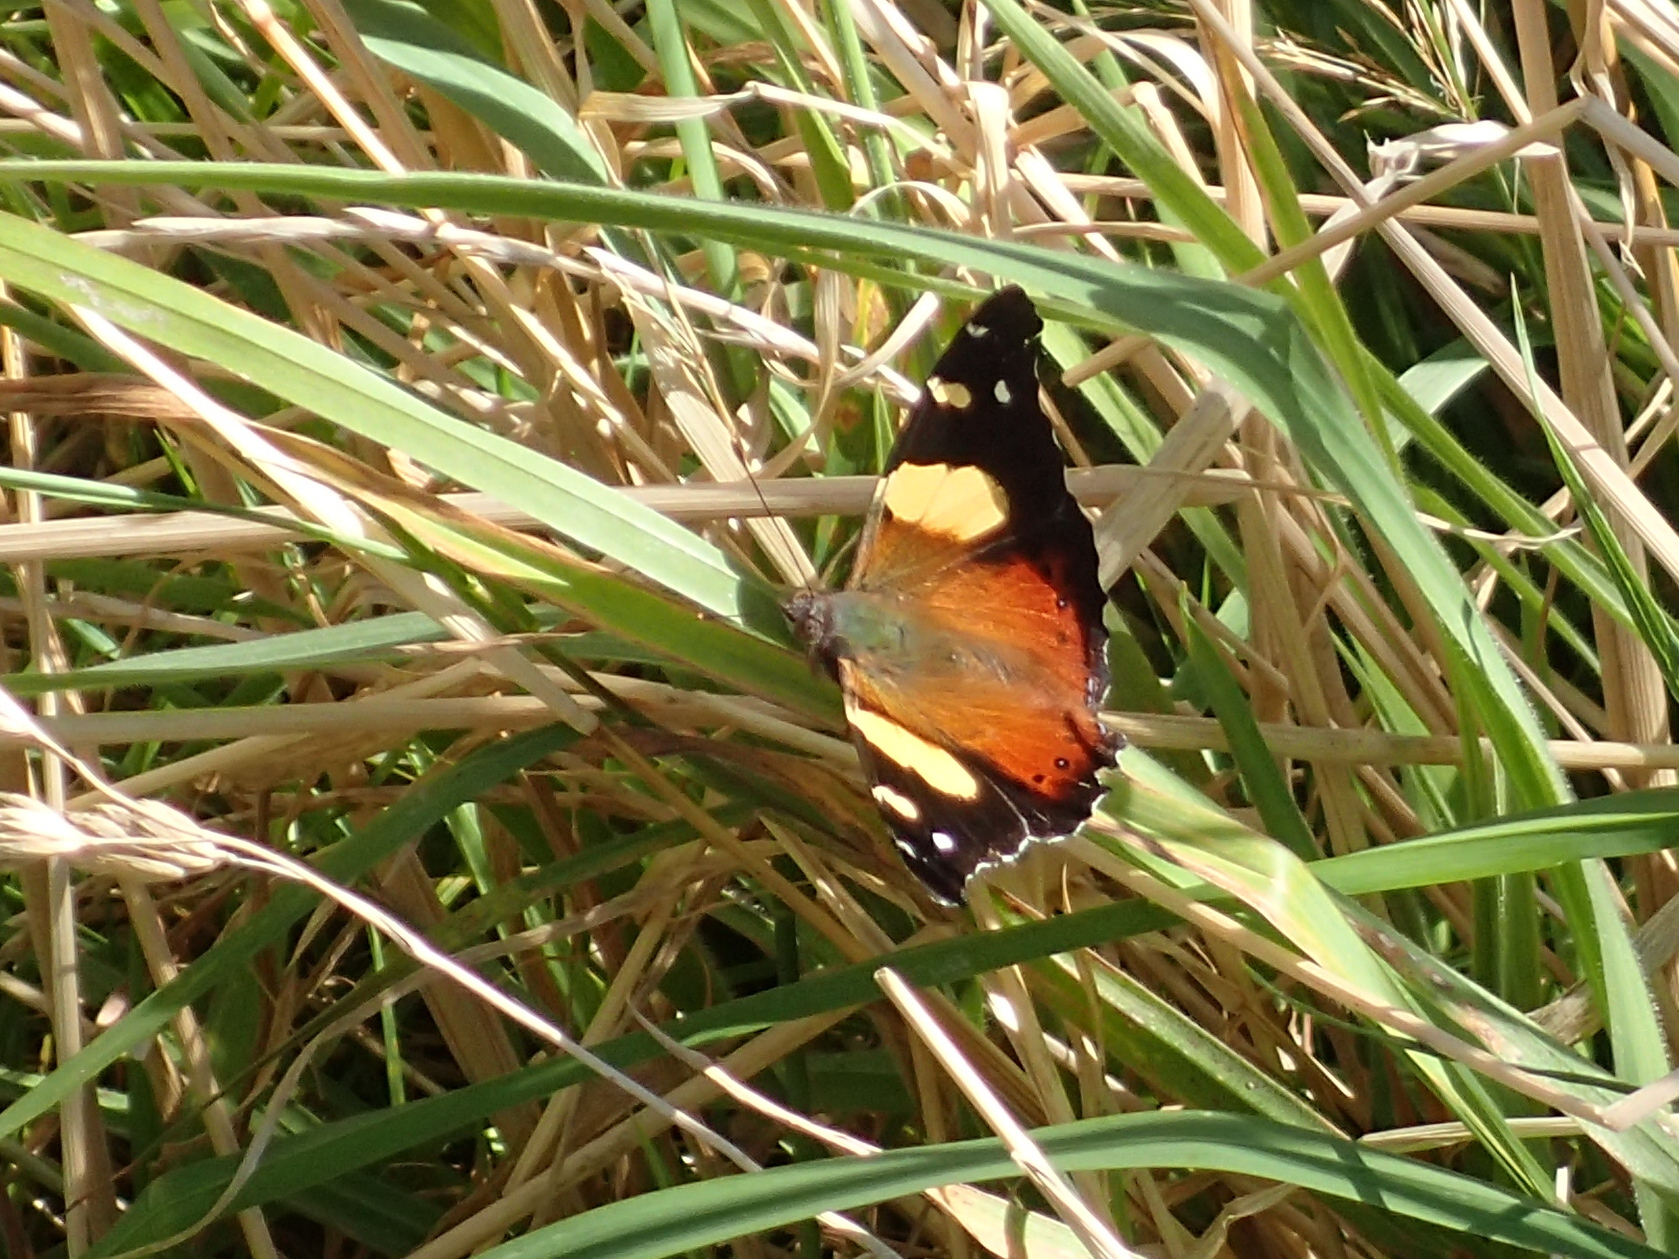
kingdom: Animalia
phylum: Arthropoda
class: Insecta
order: Lepidoptera
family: Nymphalidae
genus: Vanessa
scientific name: Vanessa itea
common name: Yellow admiral
